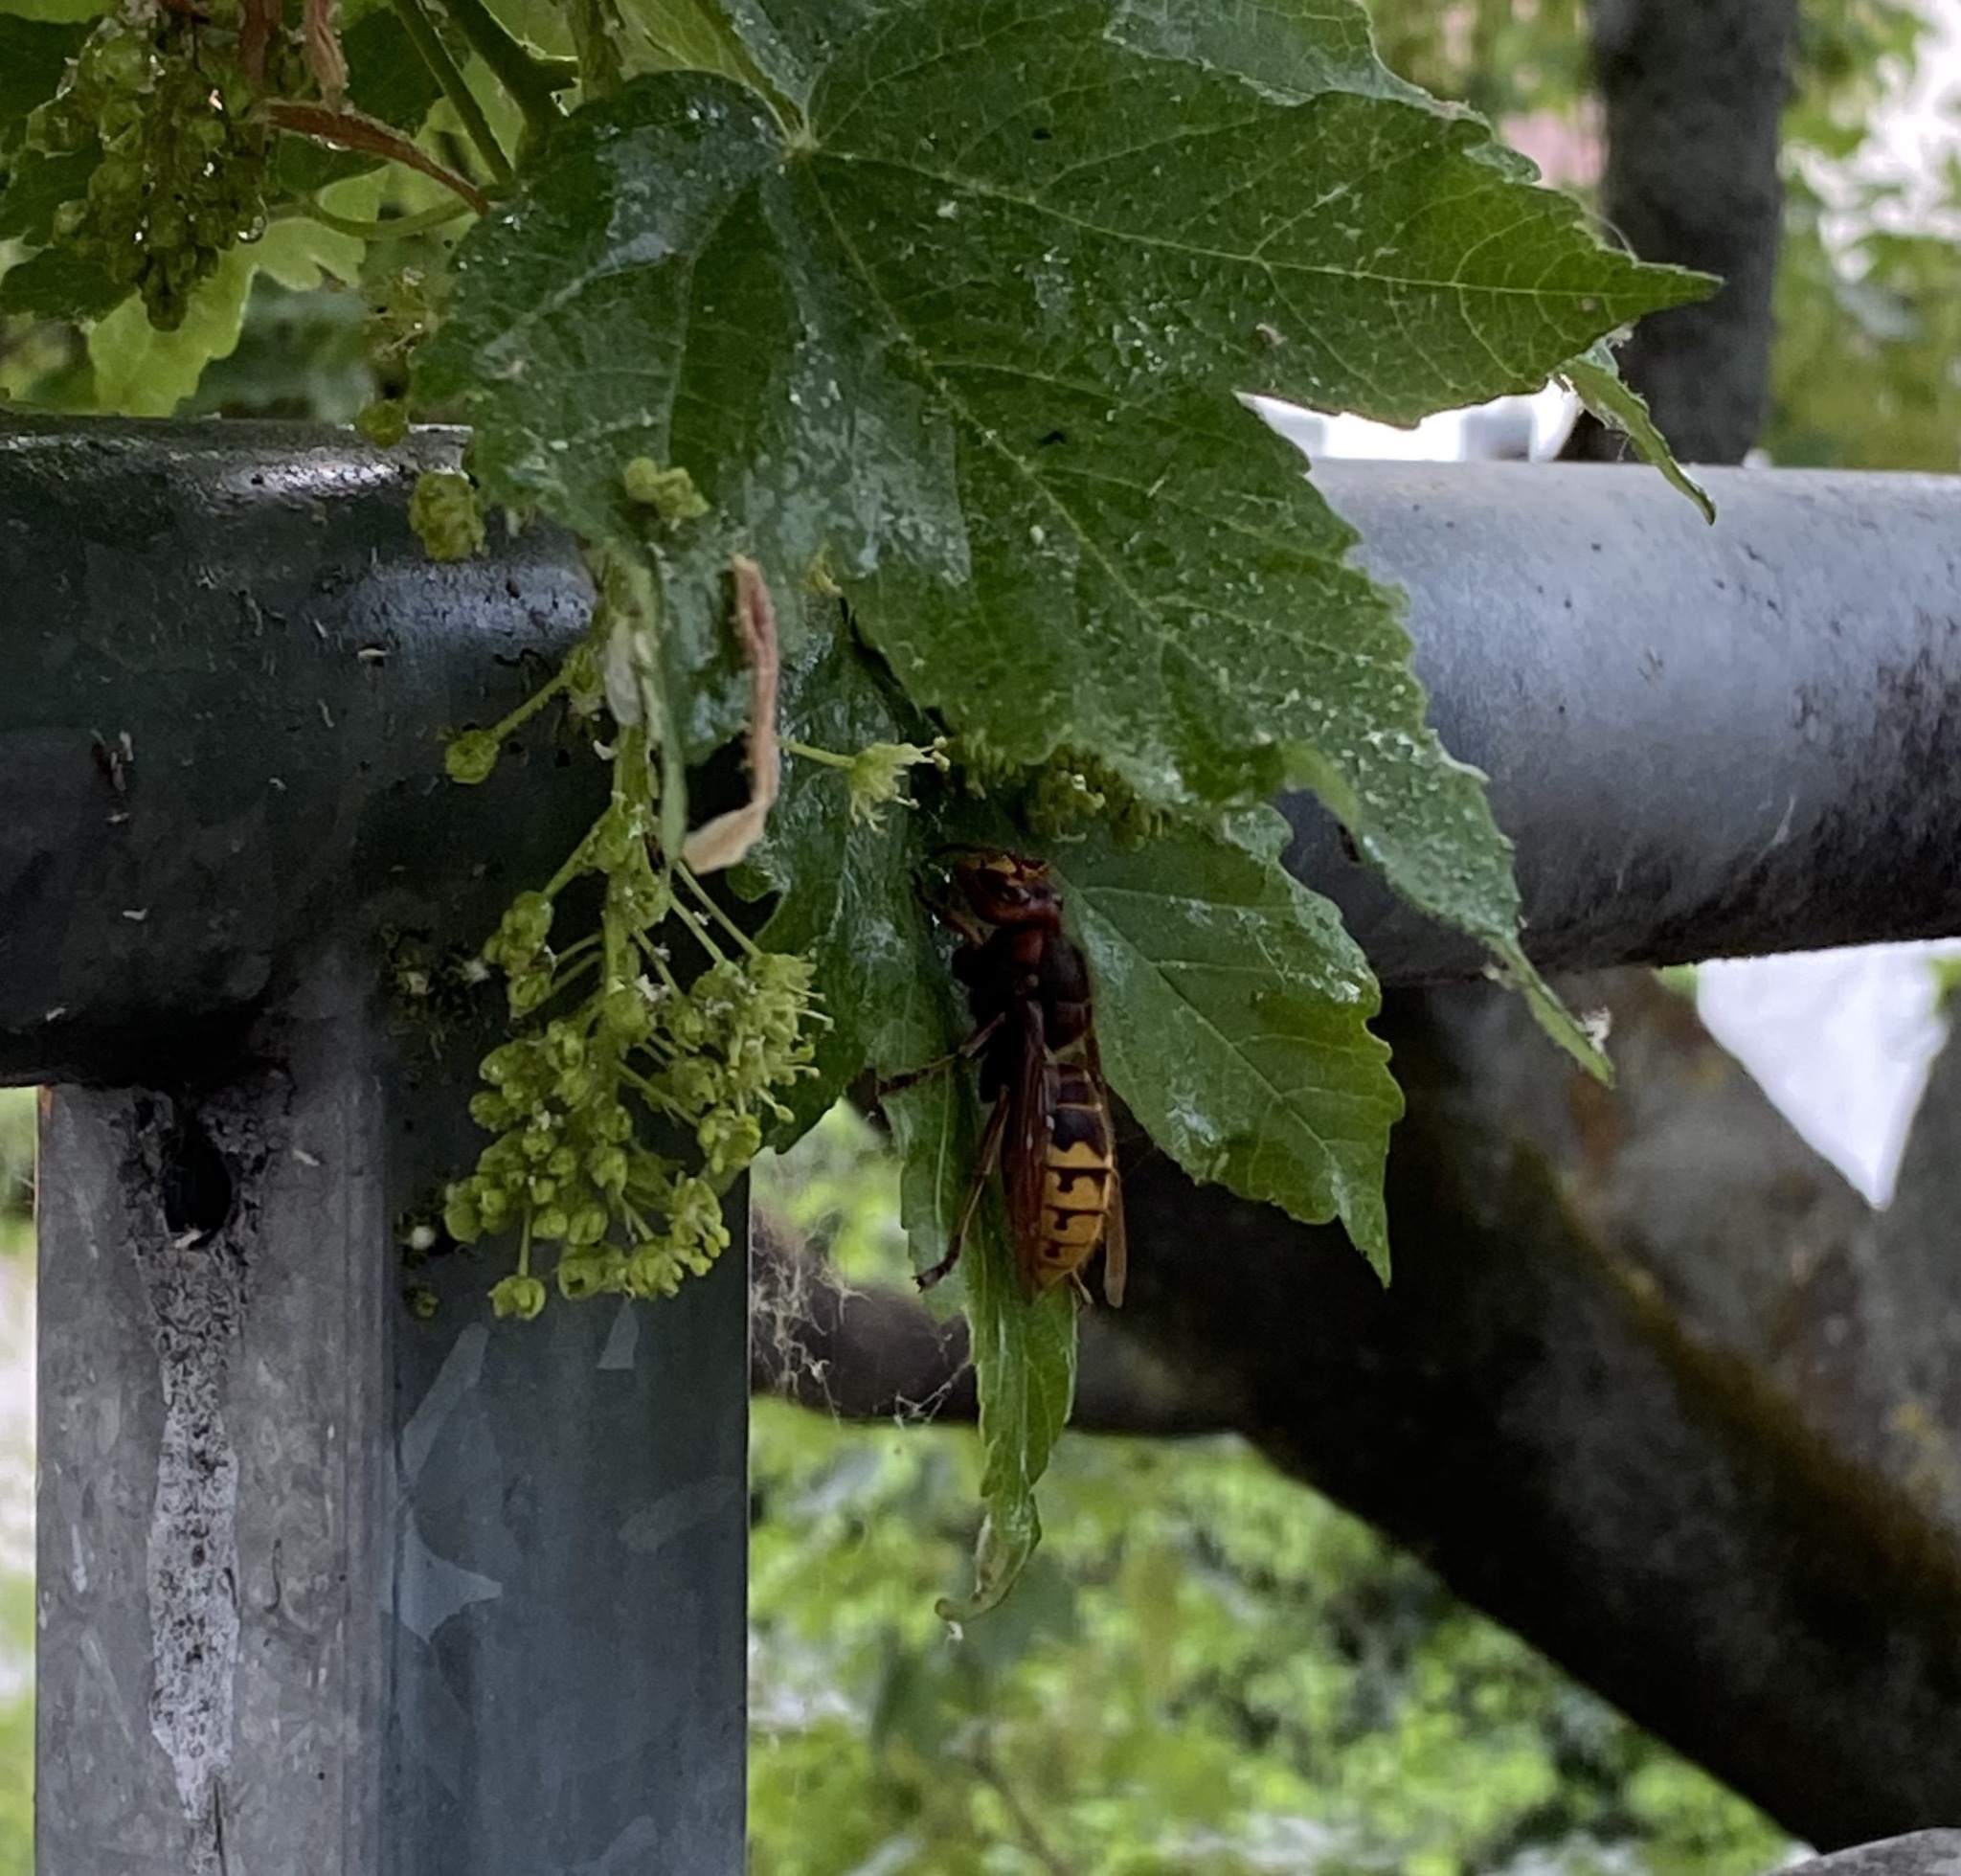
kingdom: Animalia
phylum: Arthropoda
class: Insecta
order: Hymenoptera
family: Vespidae
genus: Vespa
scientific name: Vespa crabro
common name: Hornet
